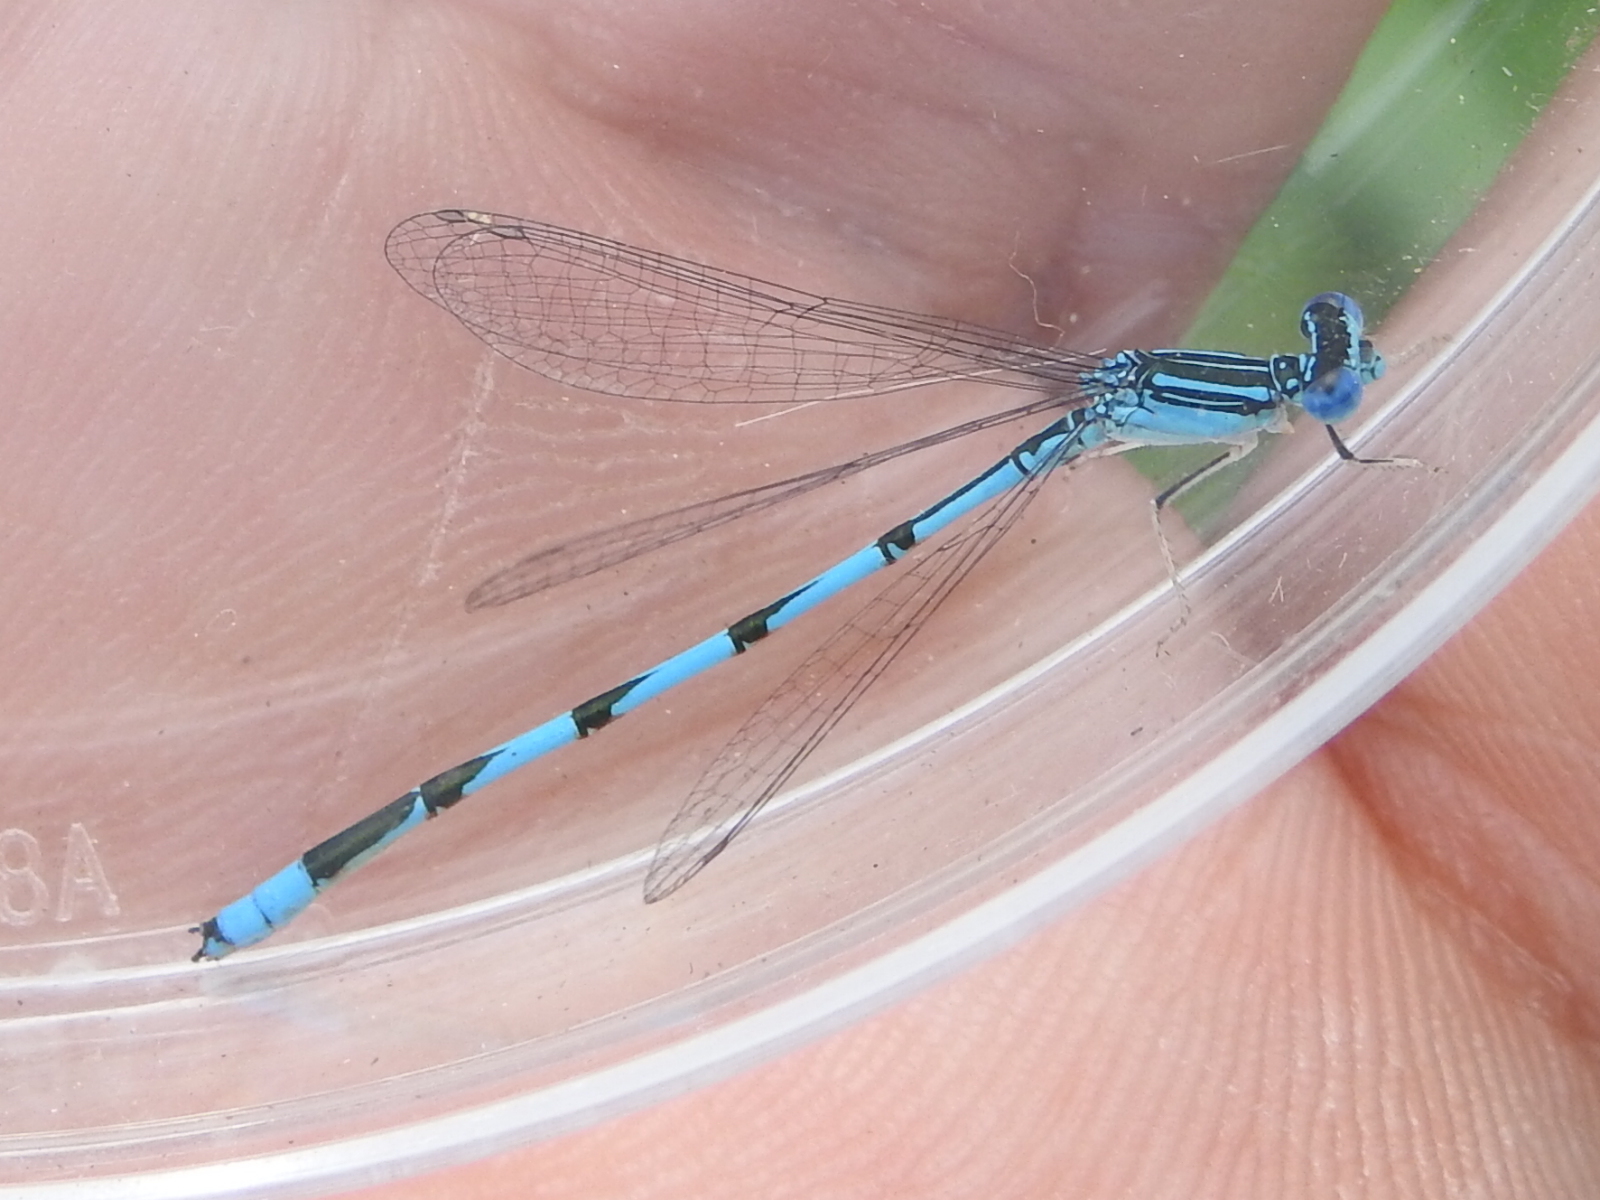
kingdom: Animalia
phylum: Arthropoda
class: Insecta
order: Odonata
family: Coenagrionidae
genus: Enallagma
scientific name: Enallagma basidens
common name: Double-striped bluet
